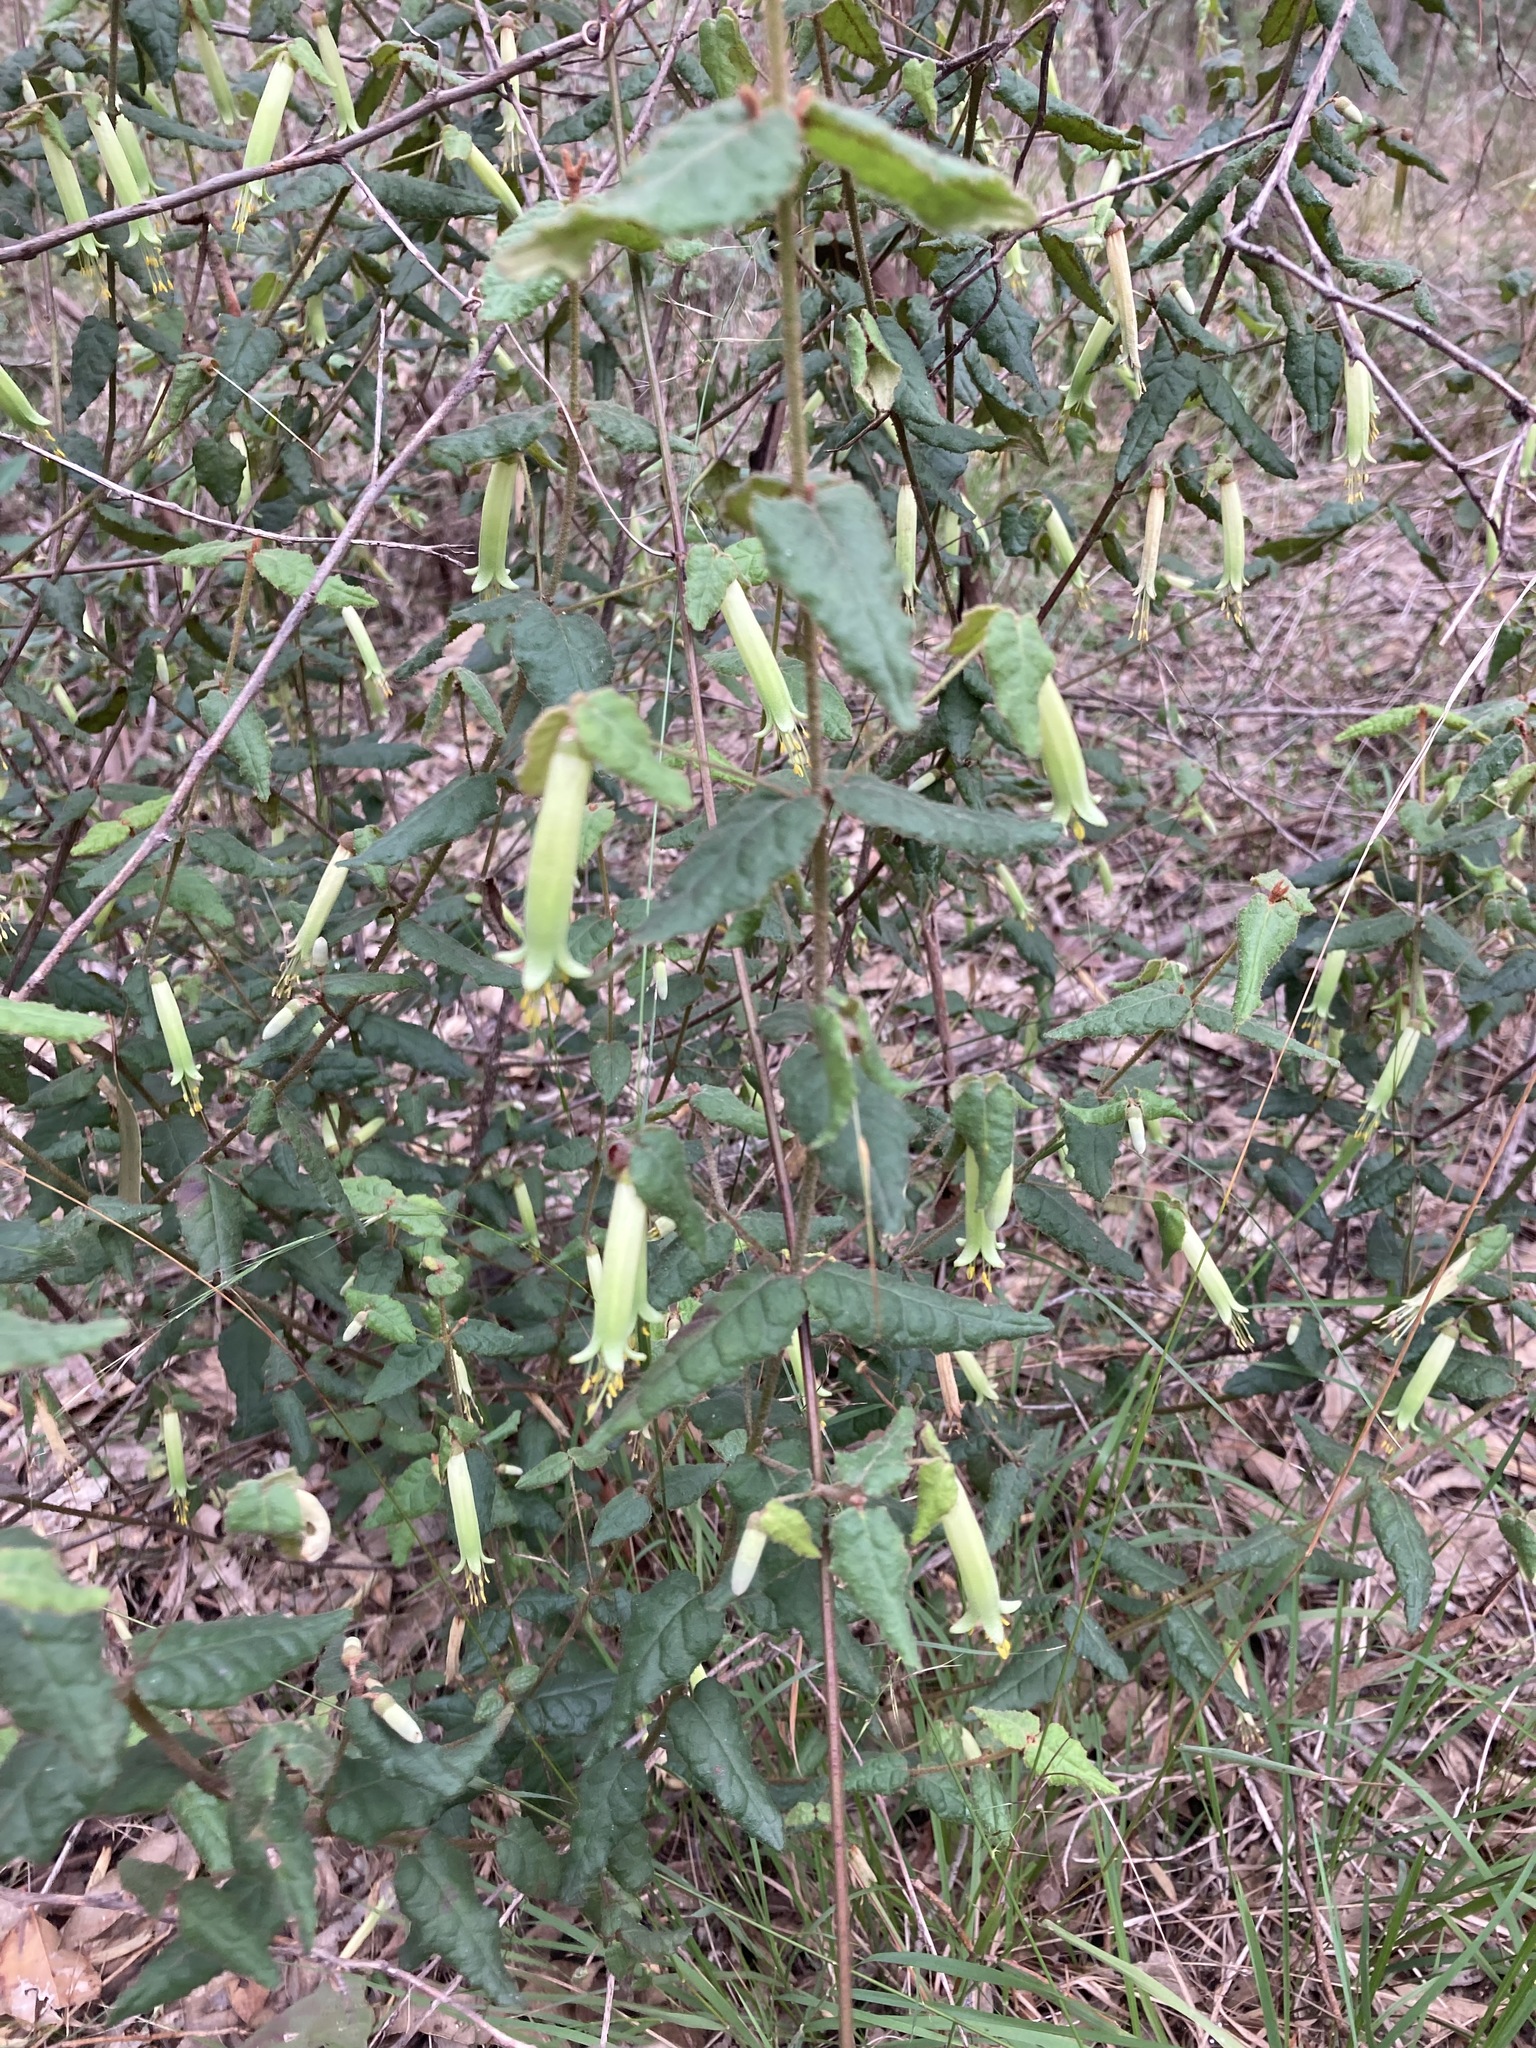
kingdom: Plantae
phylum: Tracheophyta
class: Magnoliopsida
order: Sapindales
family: Rutaceae
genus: Correa
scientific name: Correa reflexa
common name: Common correa
